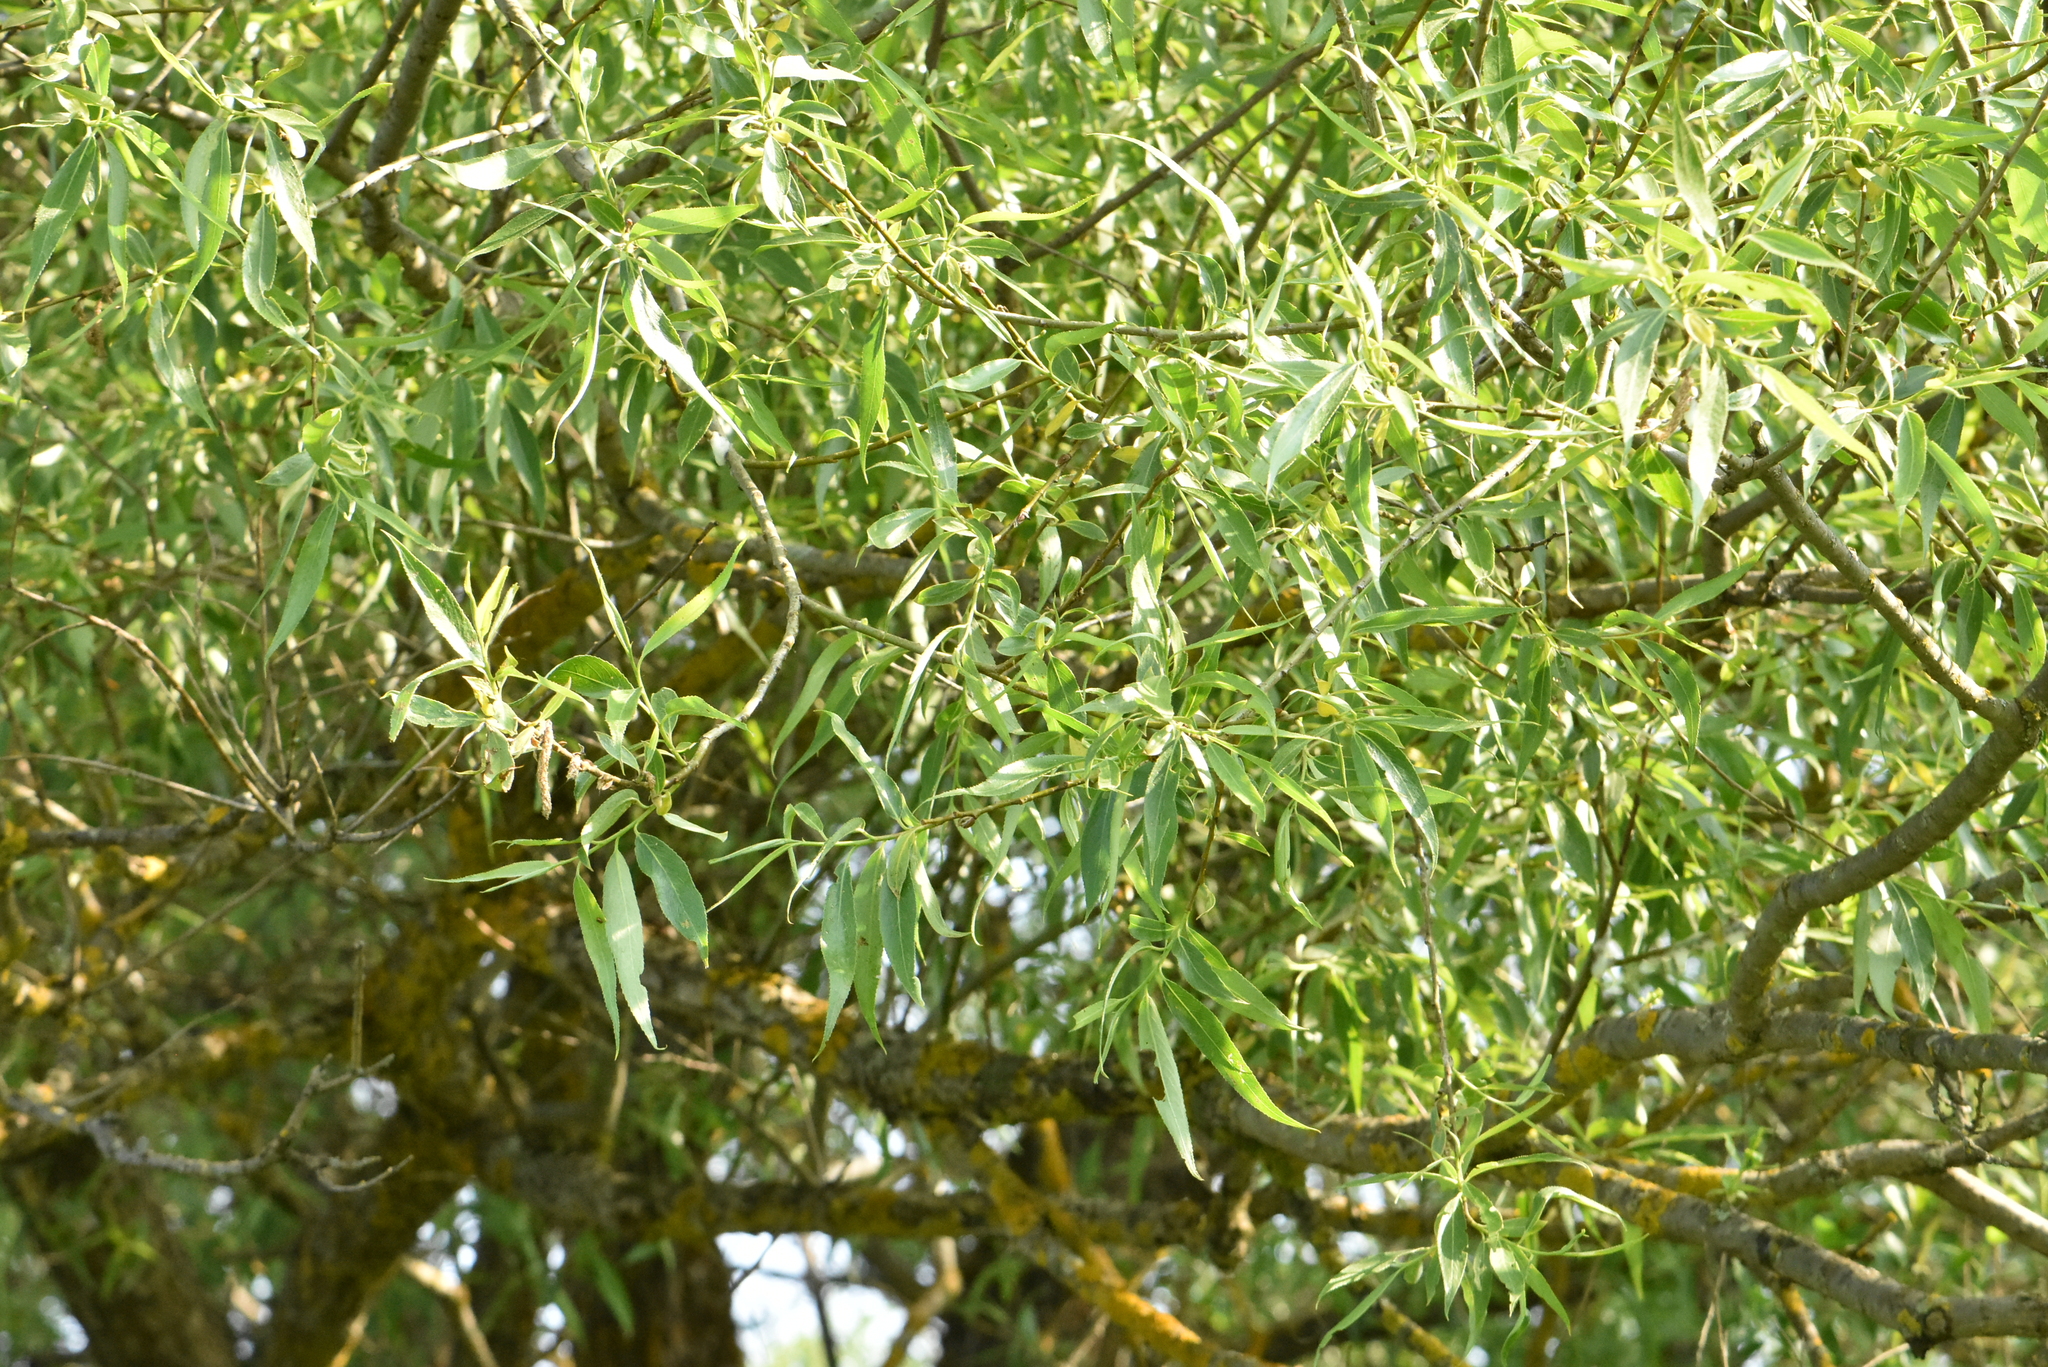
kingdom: Plantae
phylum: Tracheophyta
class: Magnoliopsida
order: Malpighiales
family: Salicaceae
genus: Salix
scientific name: Salix alba
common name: White willow
